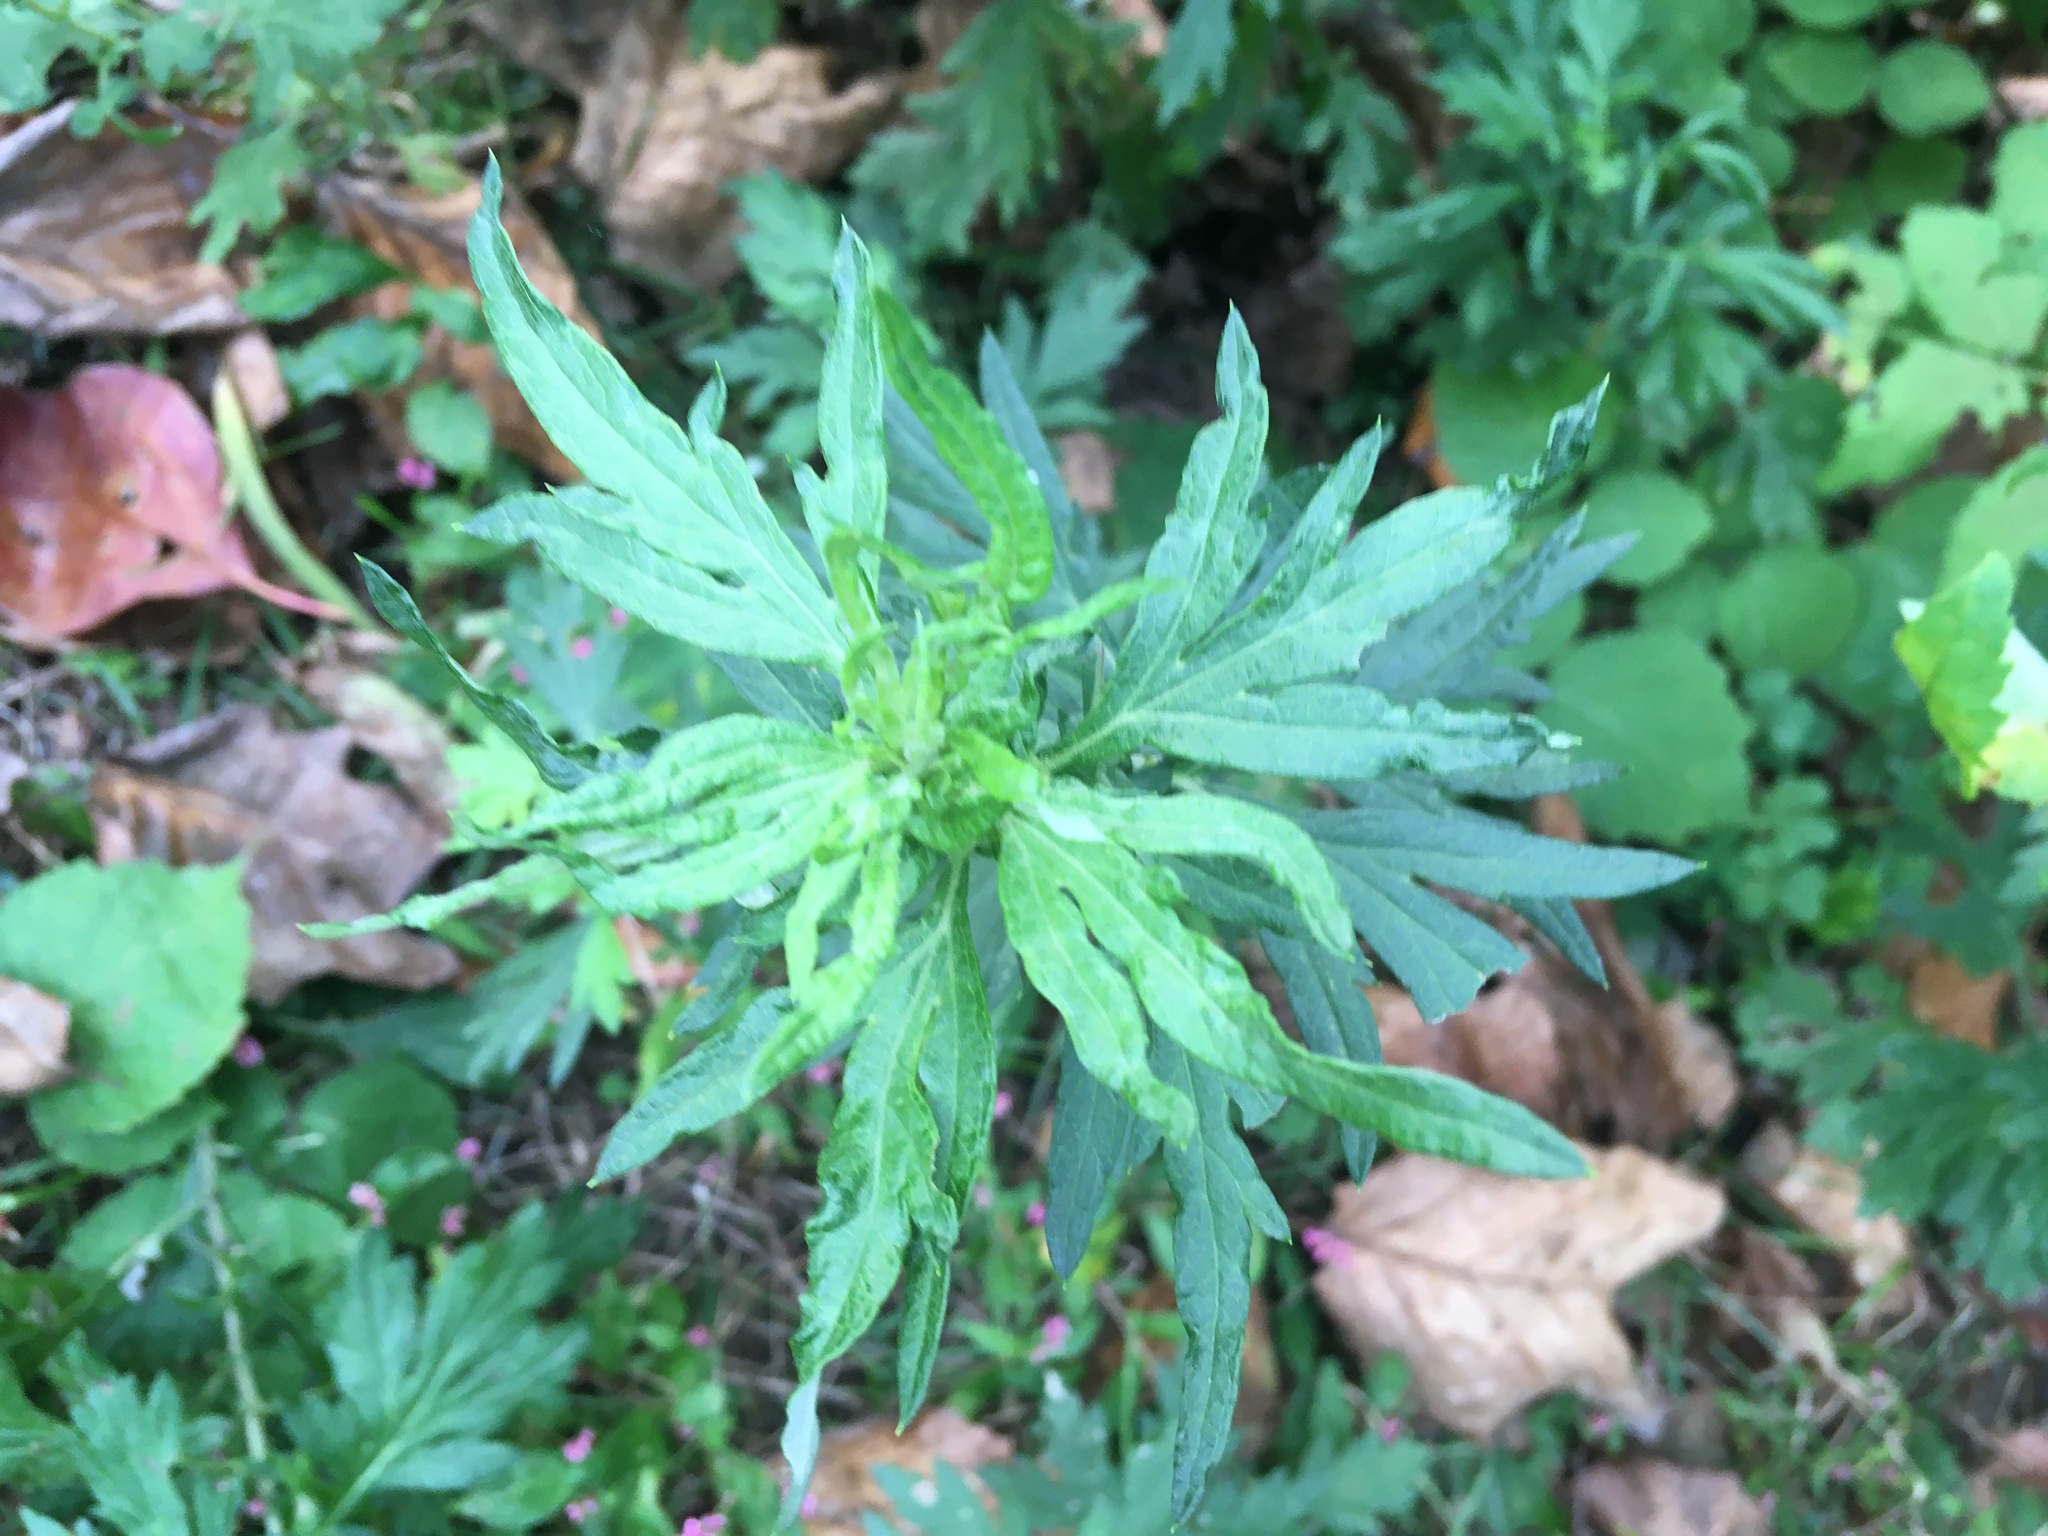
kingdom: Plantae
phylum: Tracheophyta
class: Magnoliopsida
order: Asterales
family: Asteraceae
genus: Artemisia
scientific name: Artemisia vulgaris
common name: Mugwort
